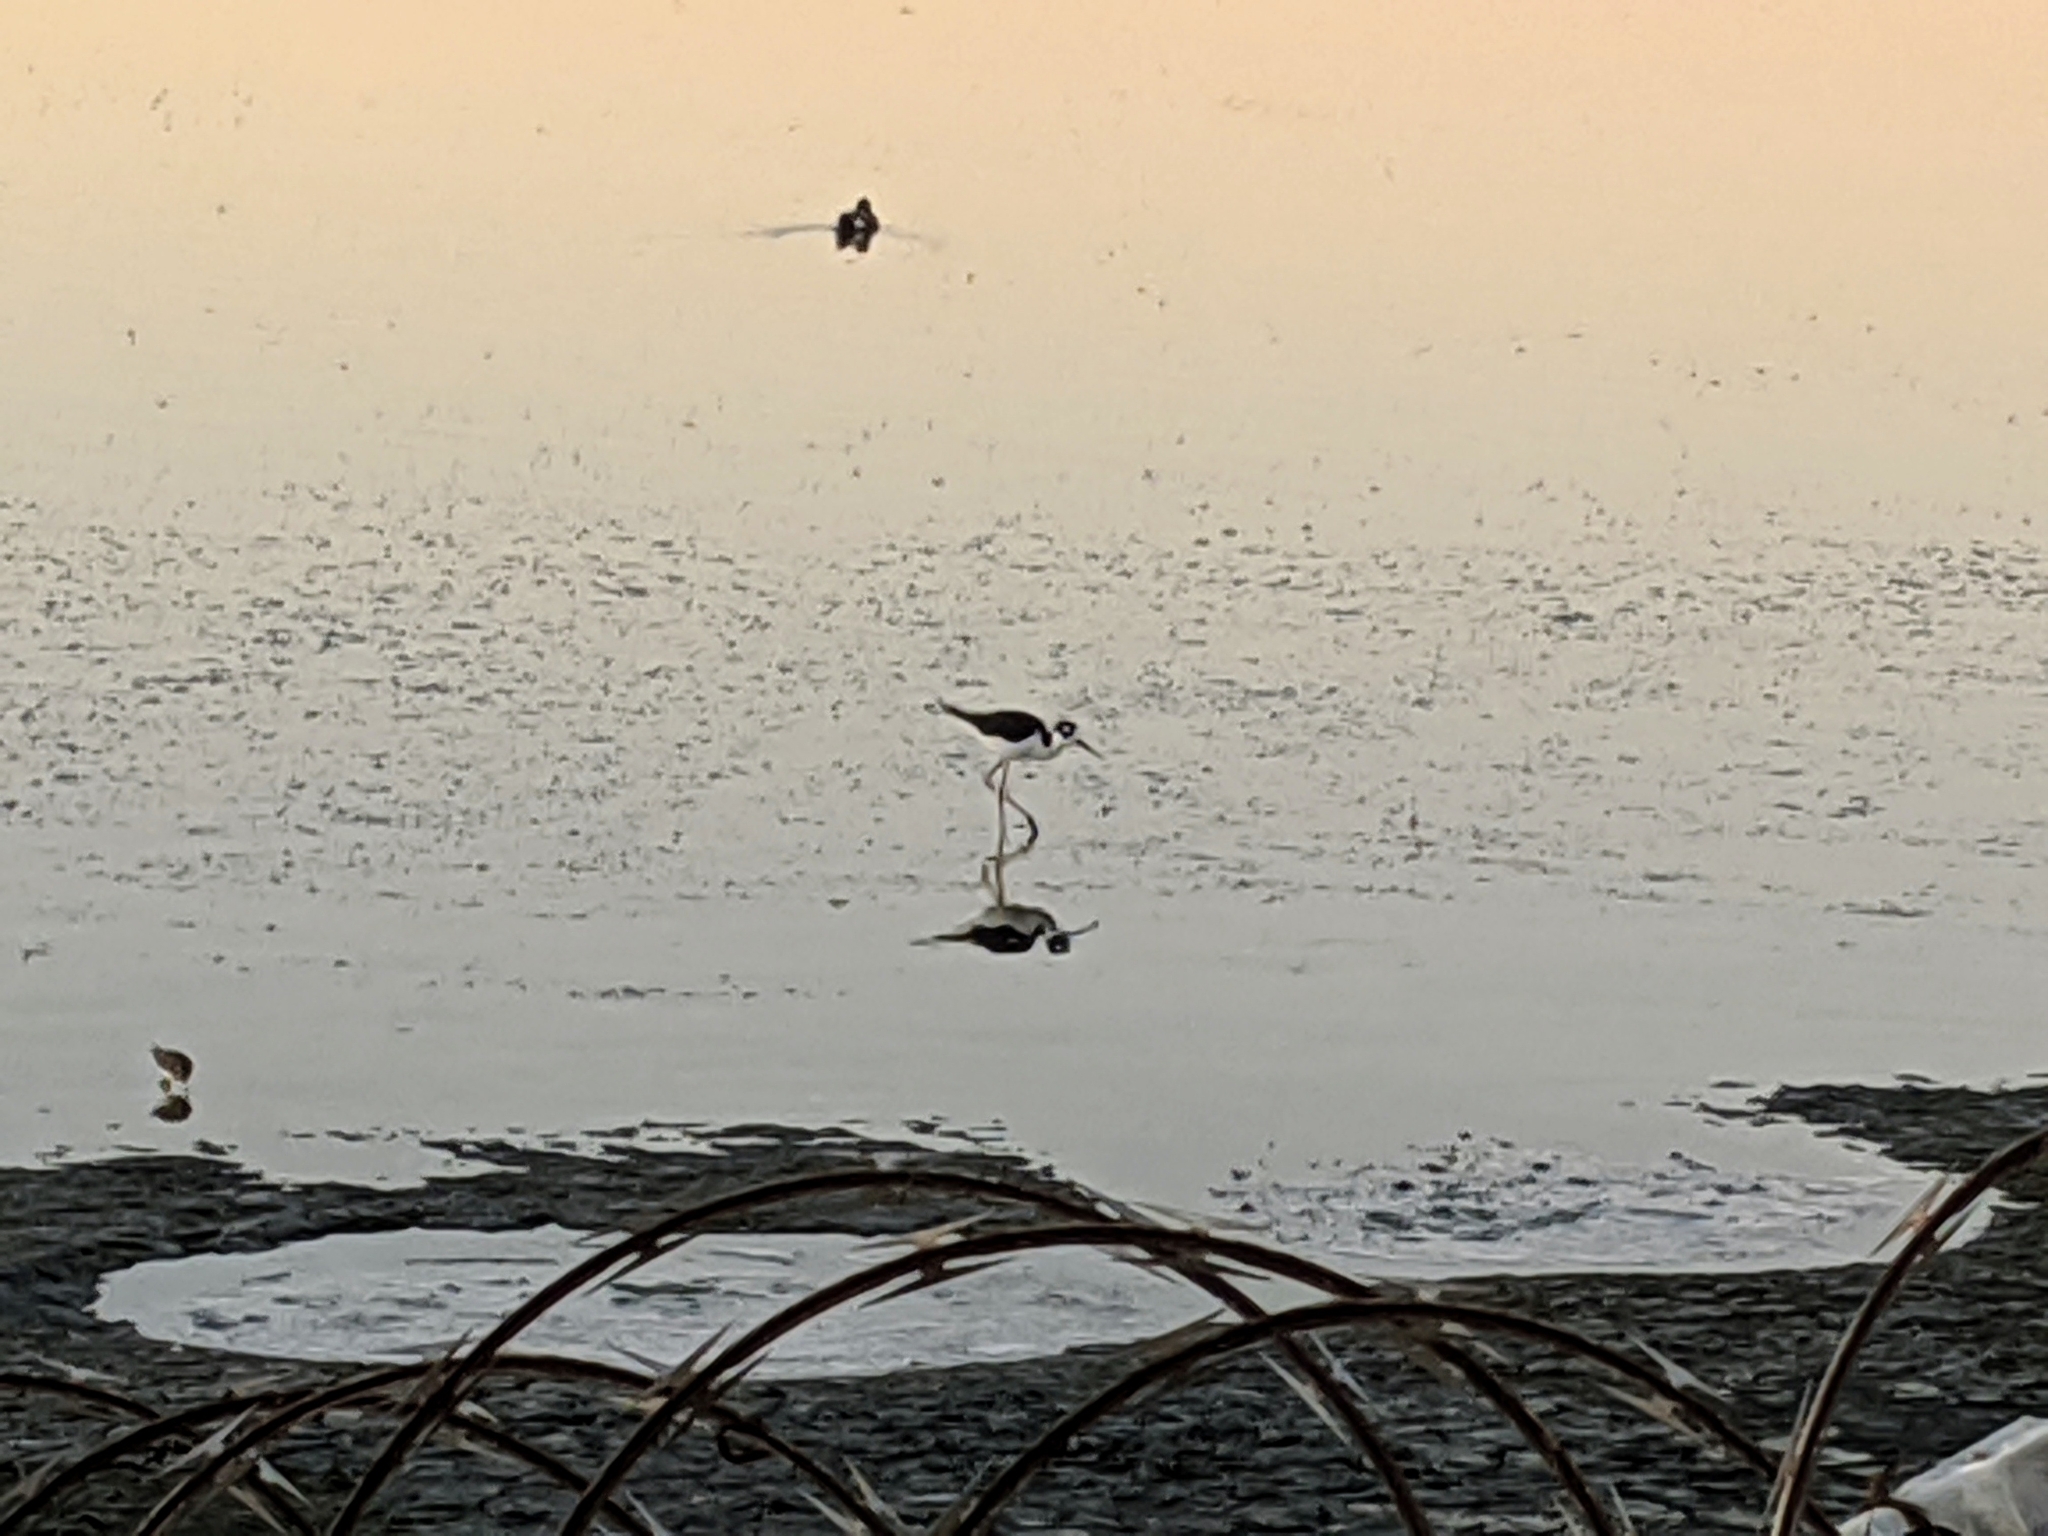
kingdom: Animalia
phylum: Chordata
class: Aves
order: Charadriiformes
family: Recurvirostridae
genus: Himantopus
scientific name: Himantopus mexicanus
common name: Black-necked stilt
